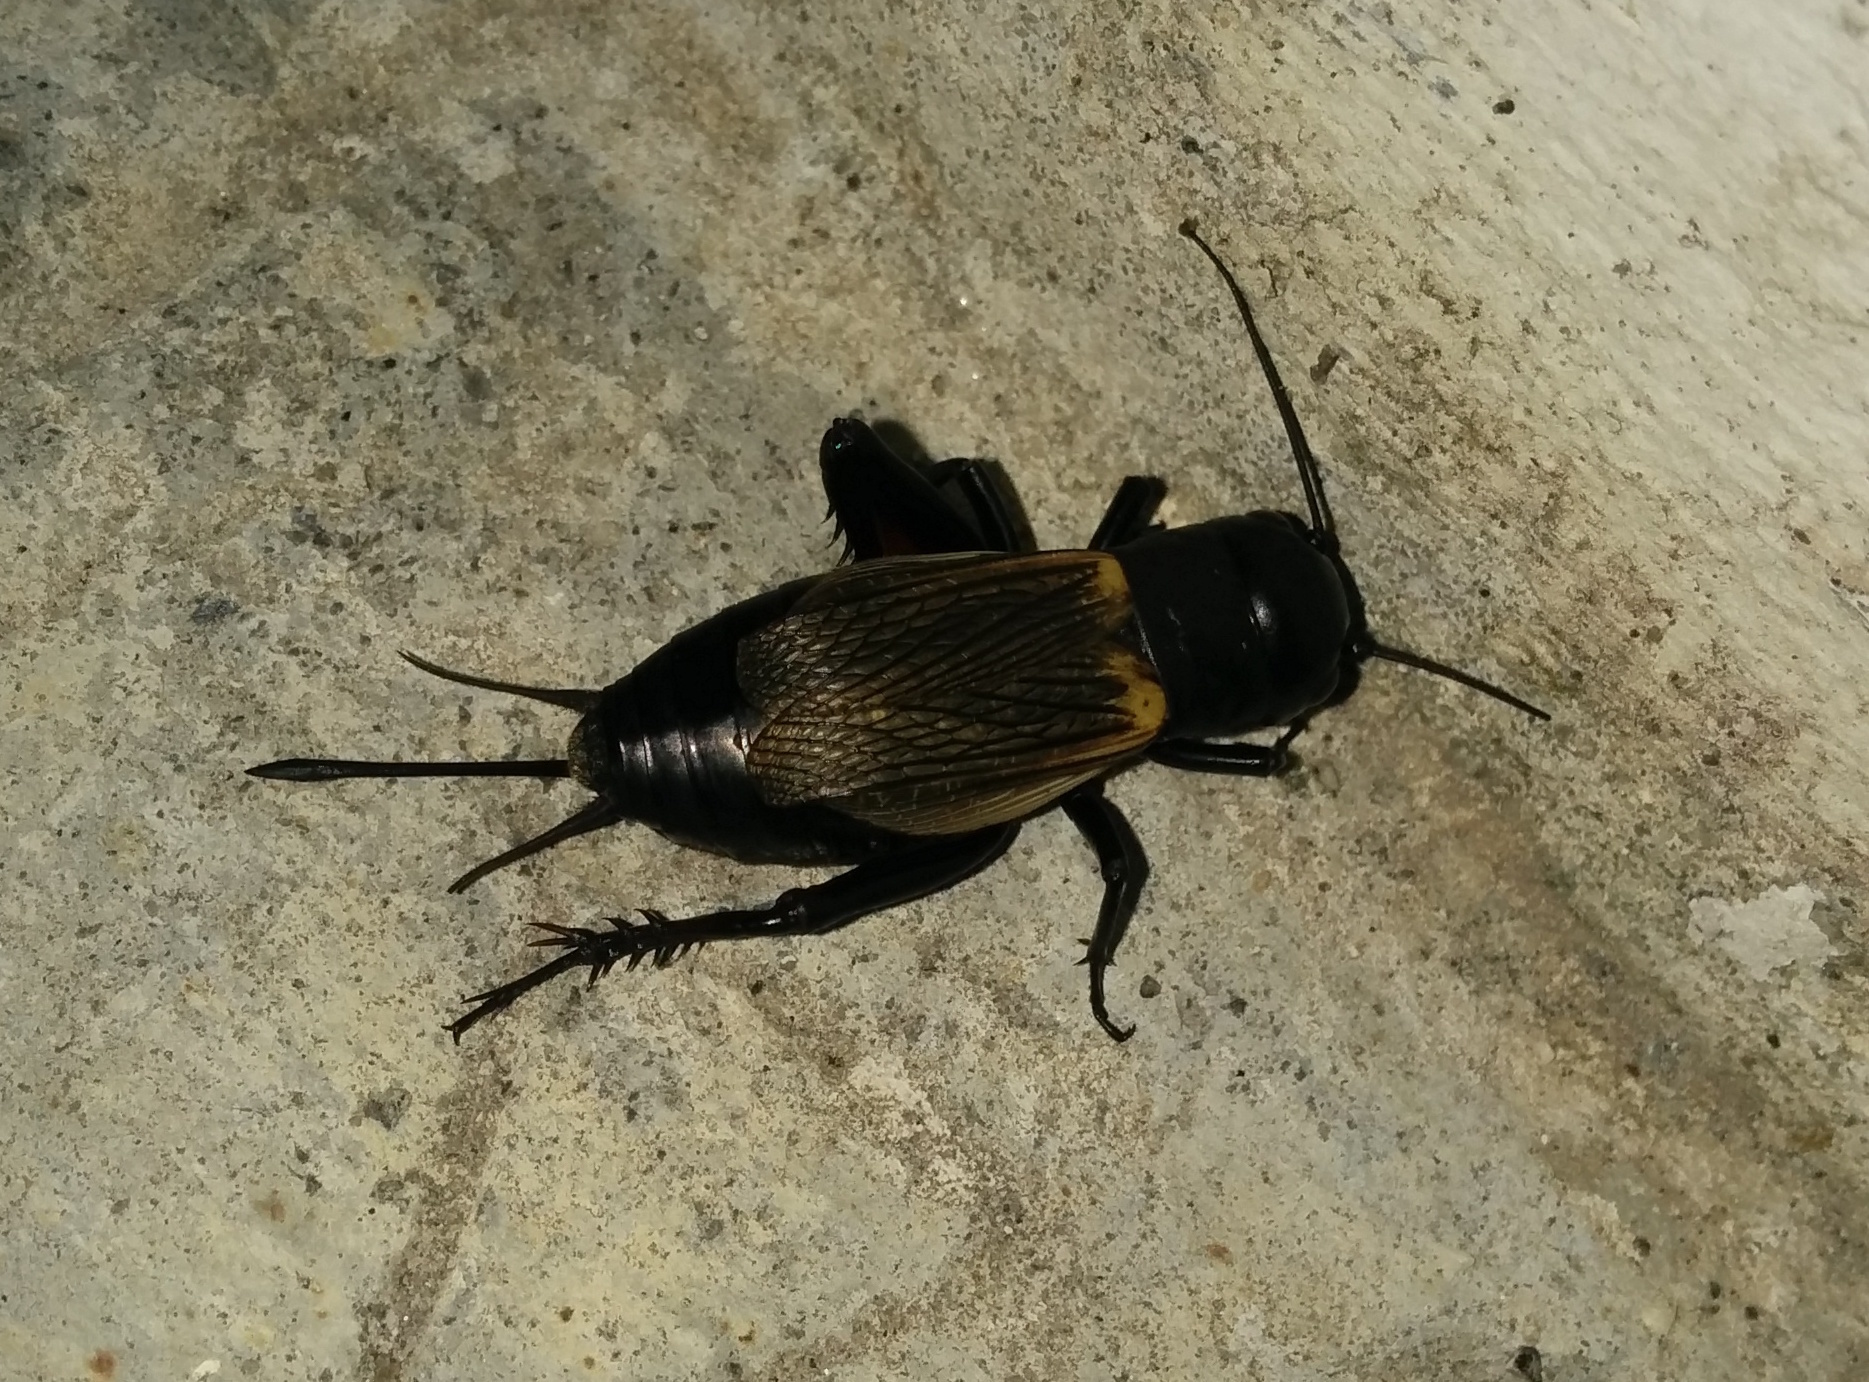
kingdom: Animalia
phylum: Arthropoda
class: Insecta
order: Orthoptera
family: Gryllidae
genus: Gryllus
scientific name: Gryllus campestris
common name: Field cricket
